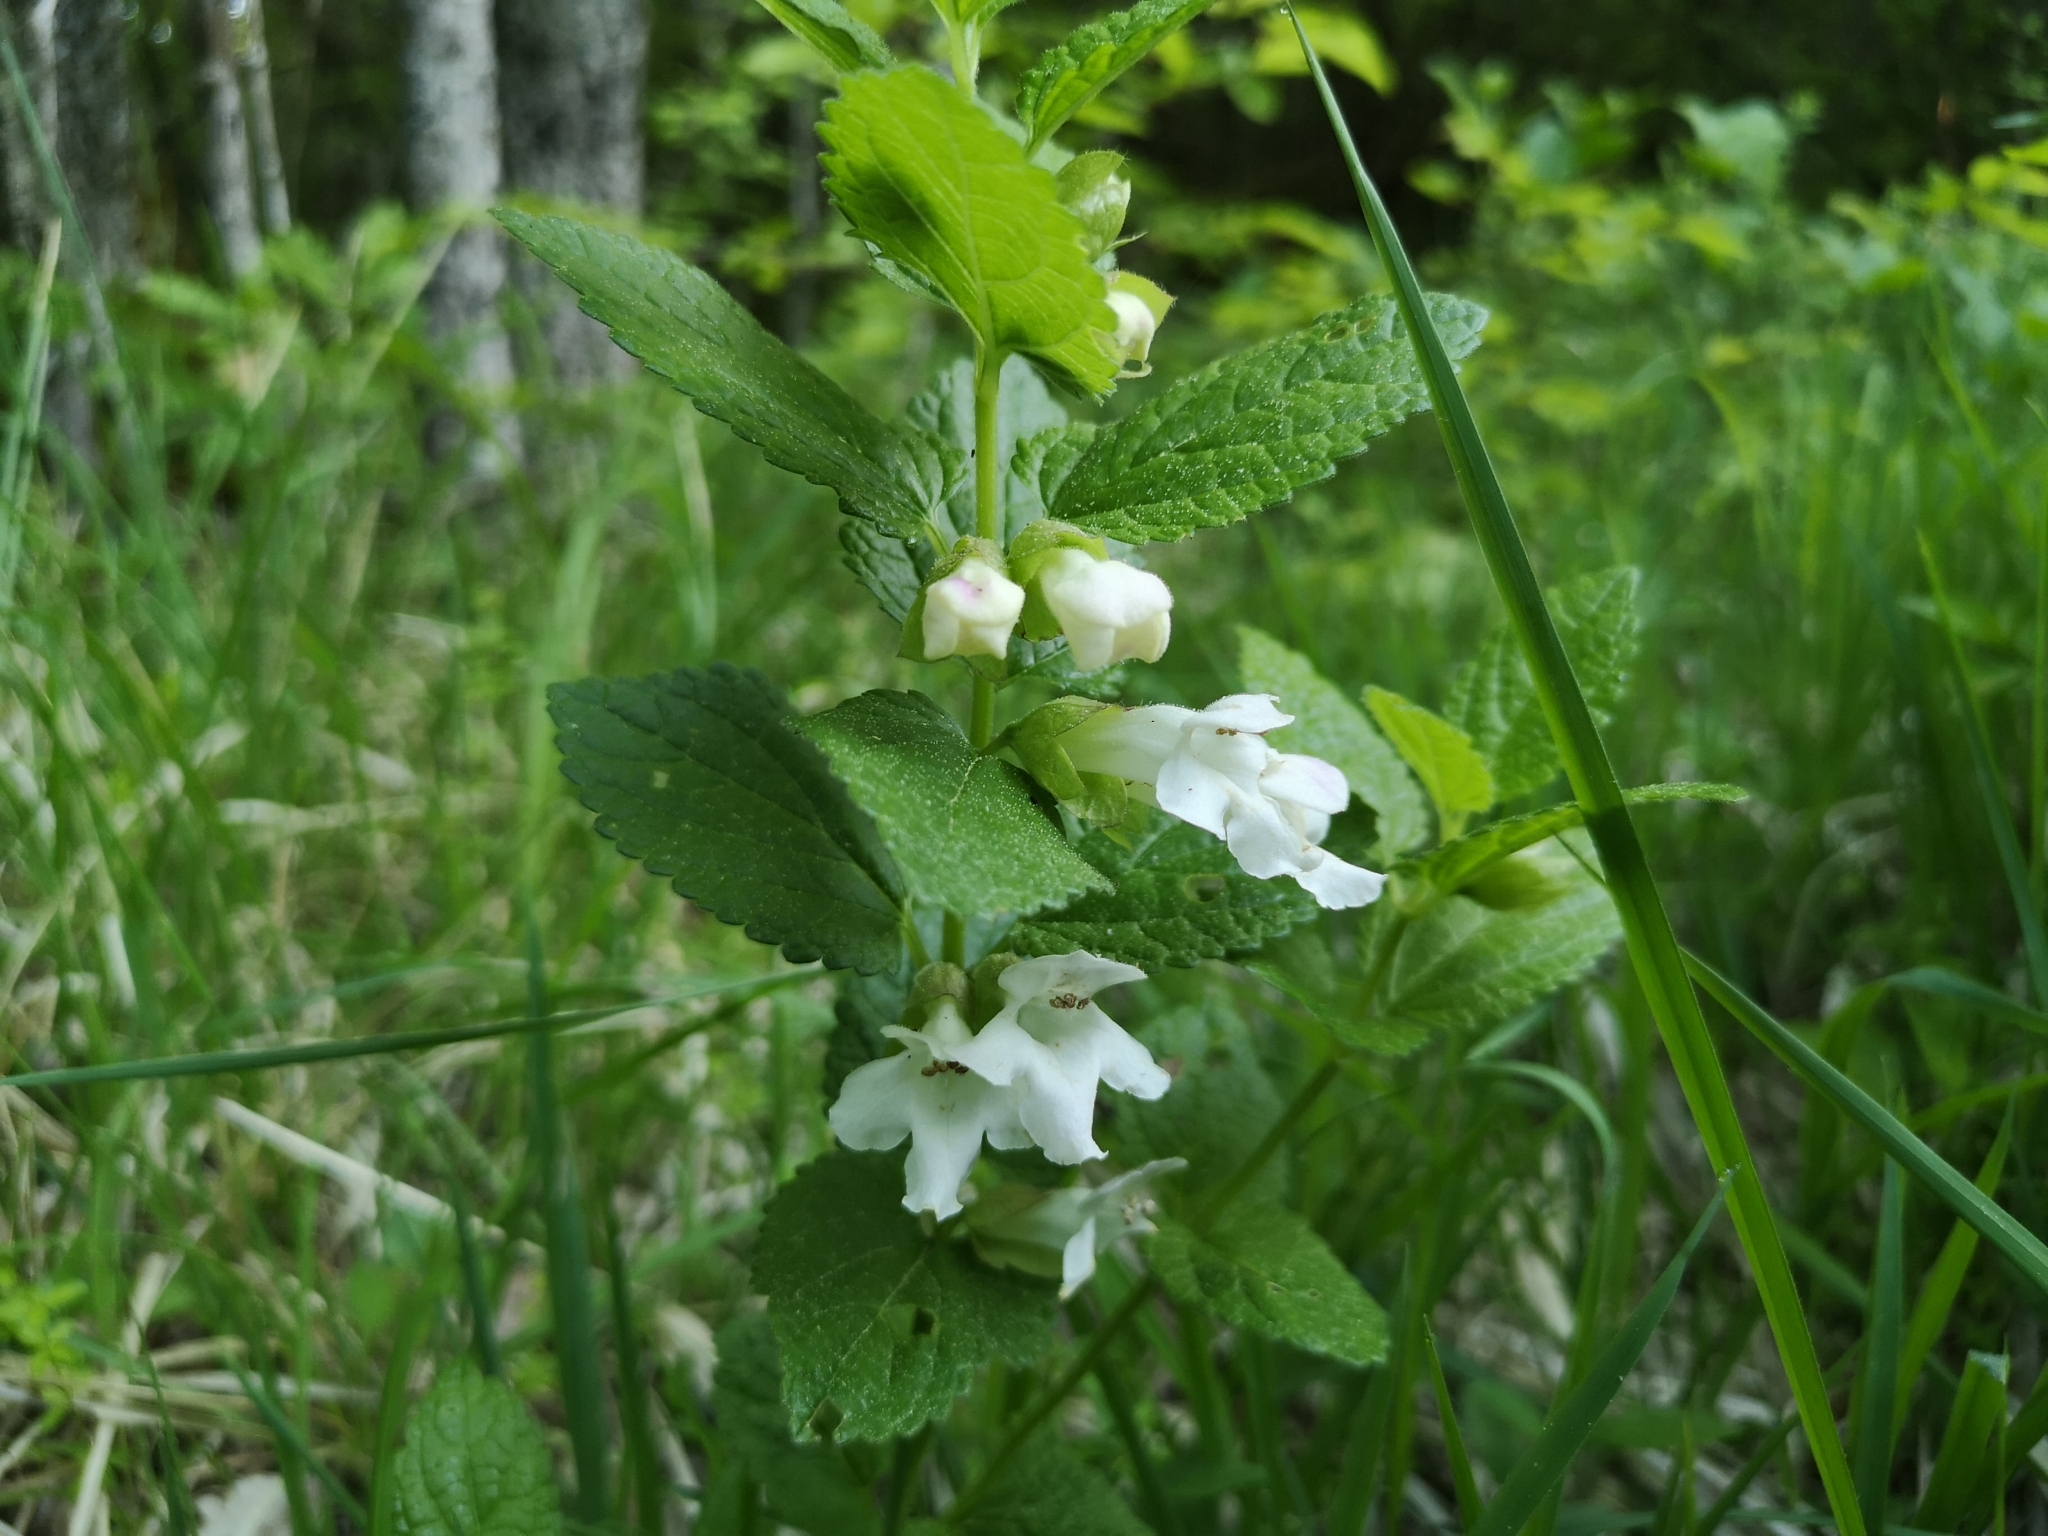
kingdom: Plantae
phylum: Tracheophyta
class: Magnoliopsida
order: Lamiales
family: Lamiaceae
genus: Melittis
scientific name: Melittis melissophyllum
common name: Bastard balm
